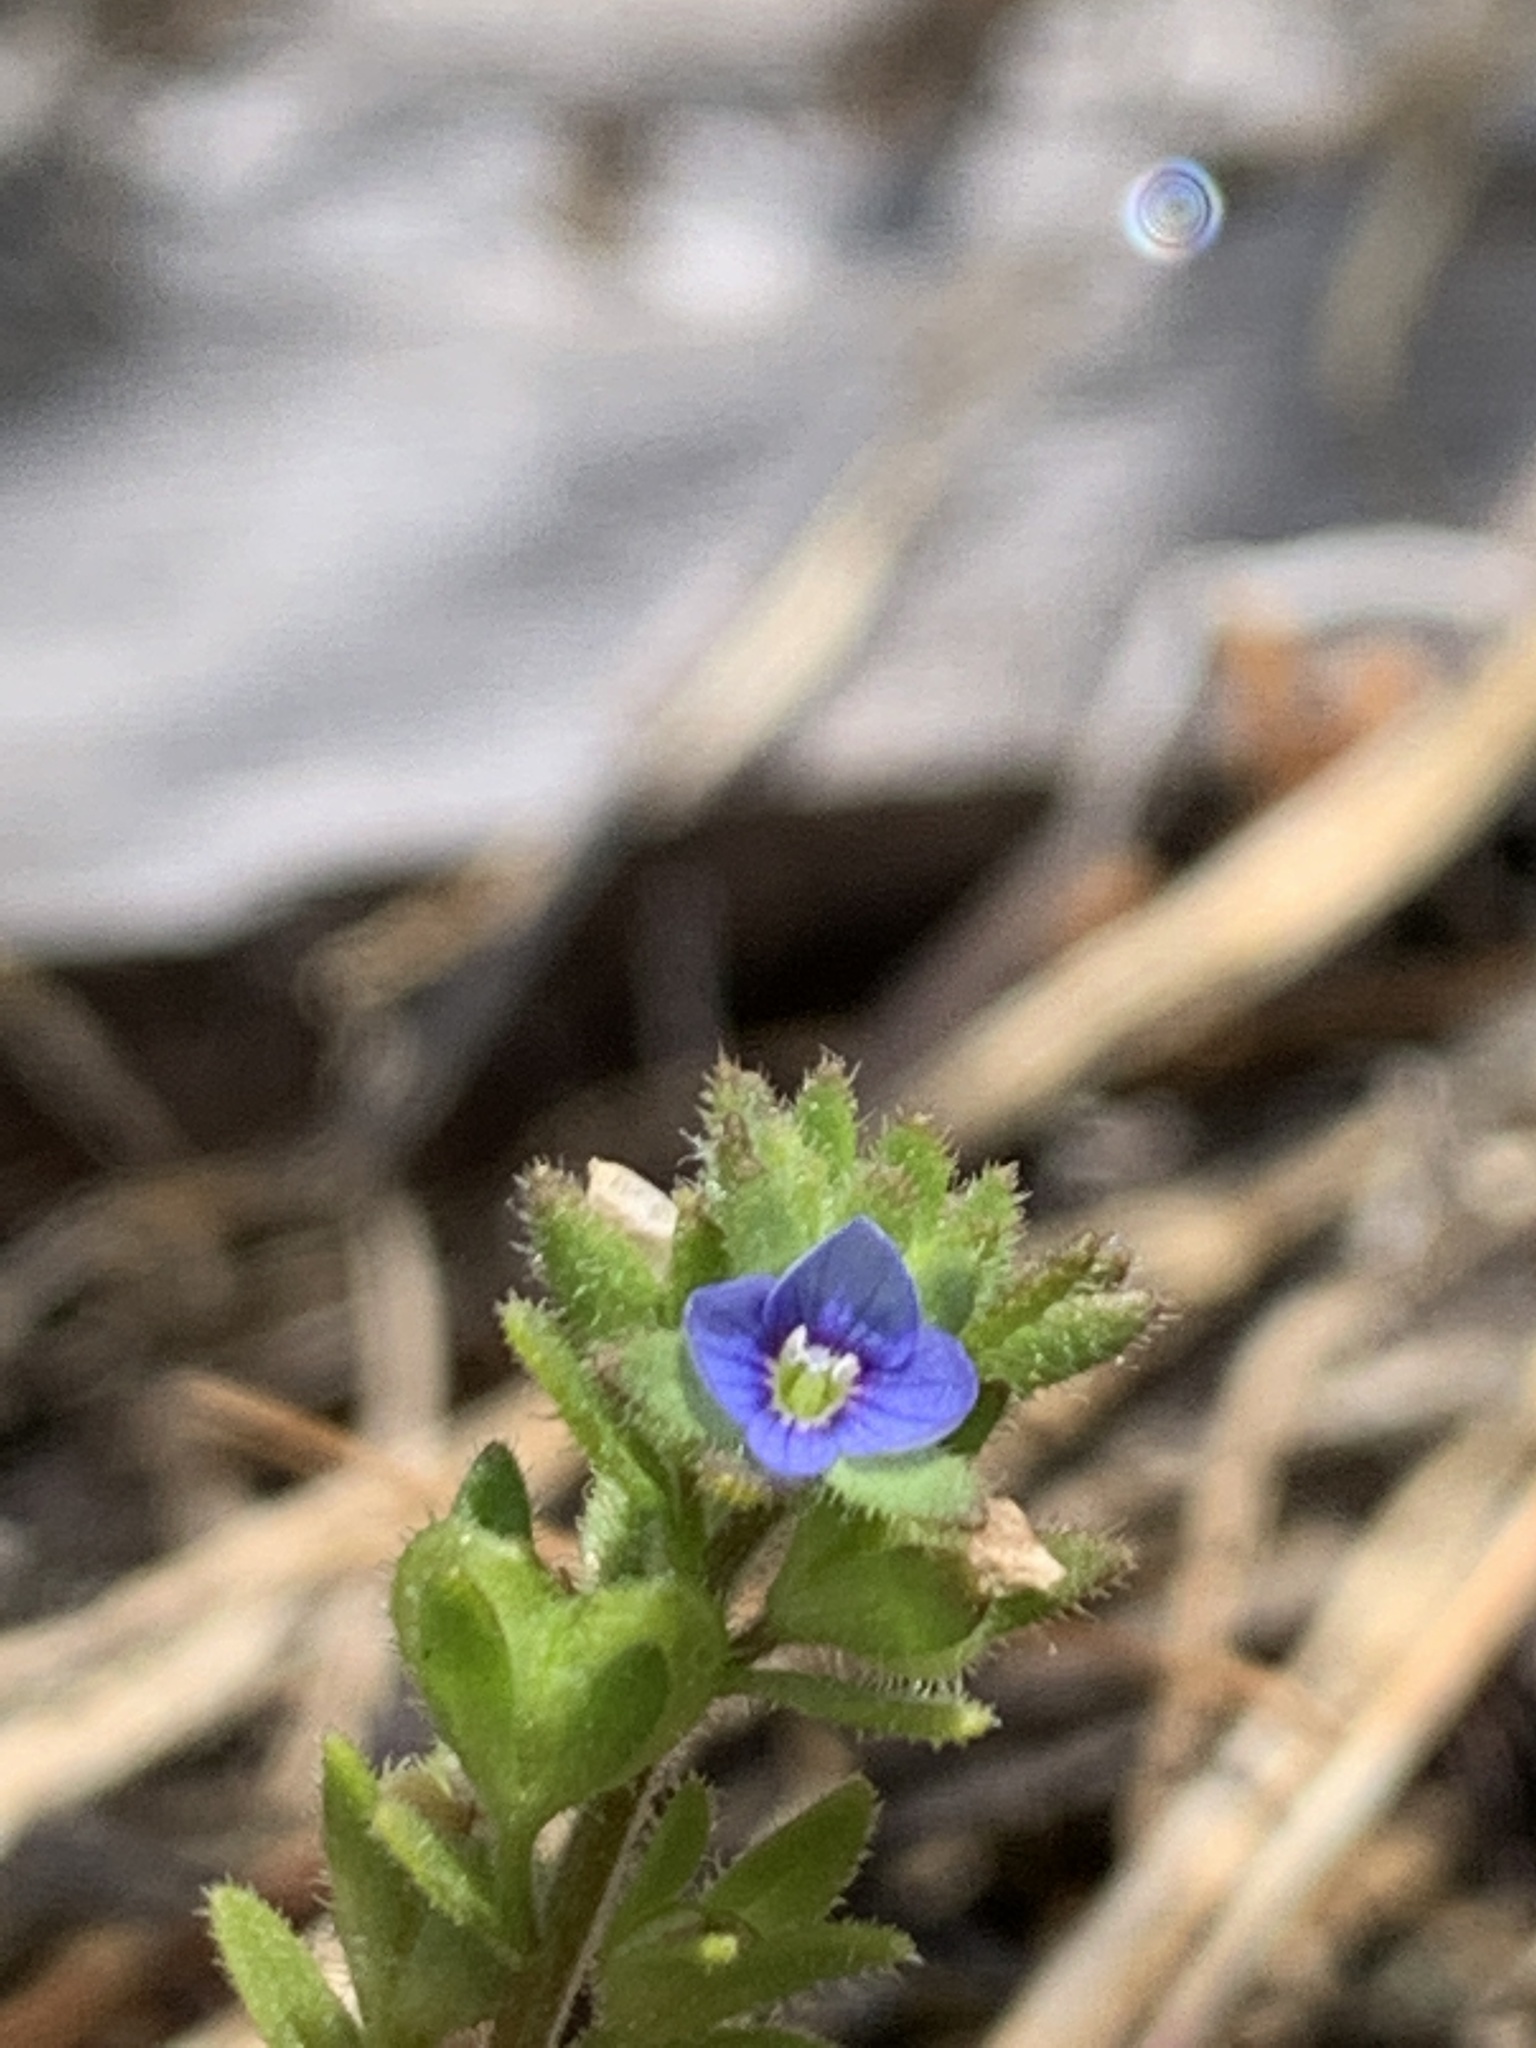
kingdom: Plantae
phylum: Tracheophyta
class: Magnoliopsida
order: Lamiales
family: Plantaginaceae
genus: Veronica
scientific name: Veronica arvensis
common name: Corn speedwell
